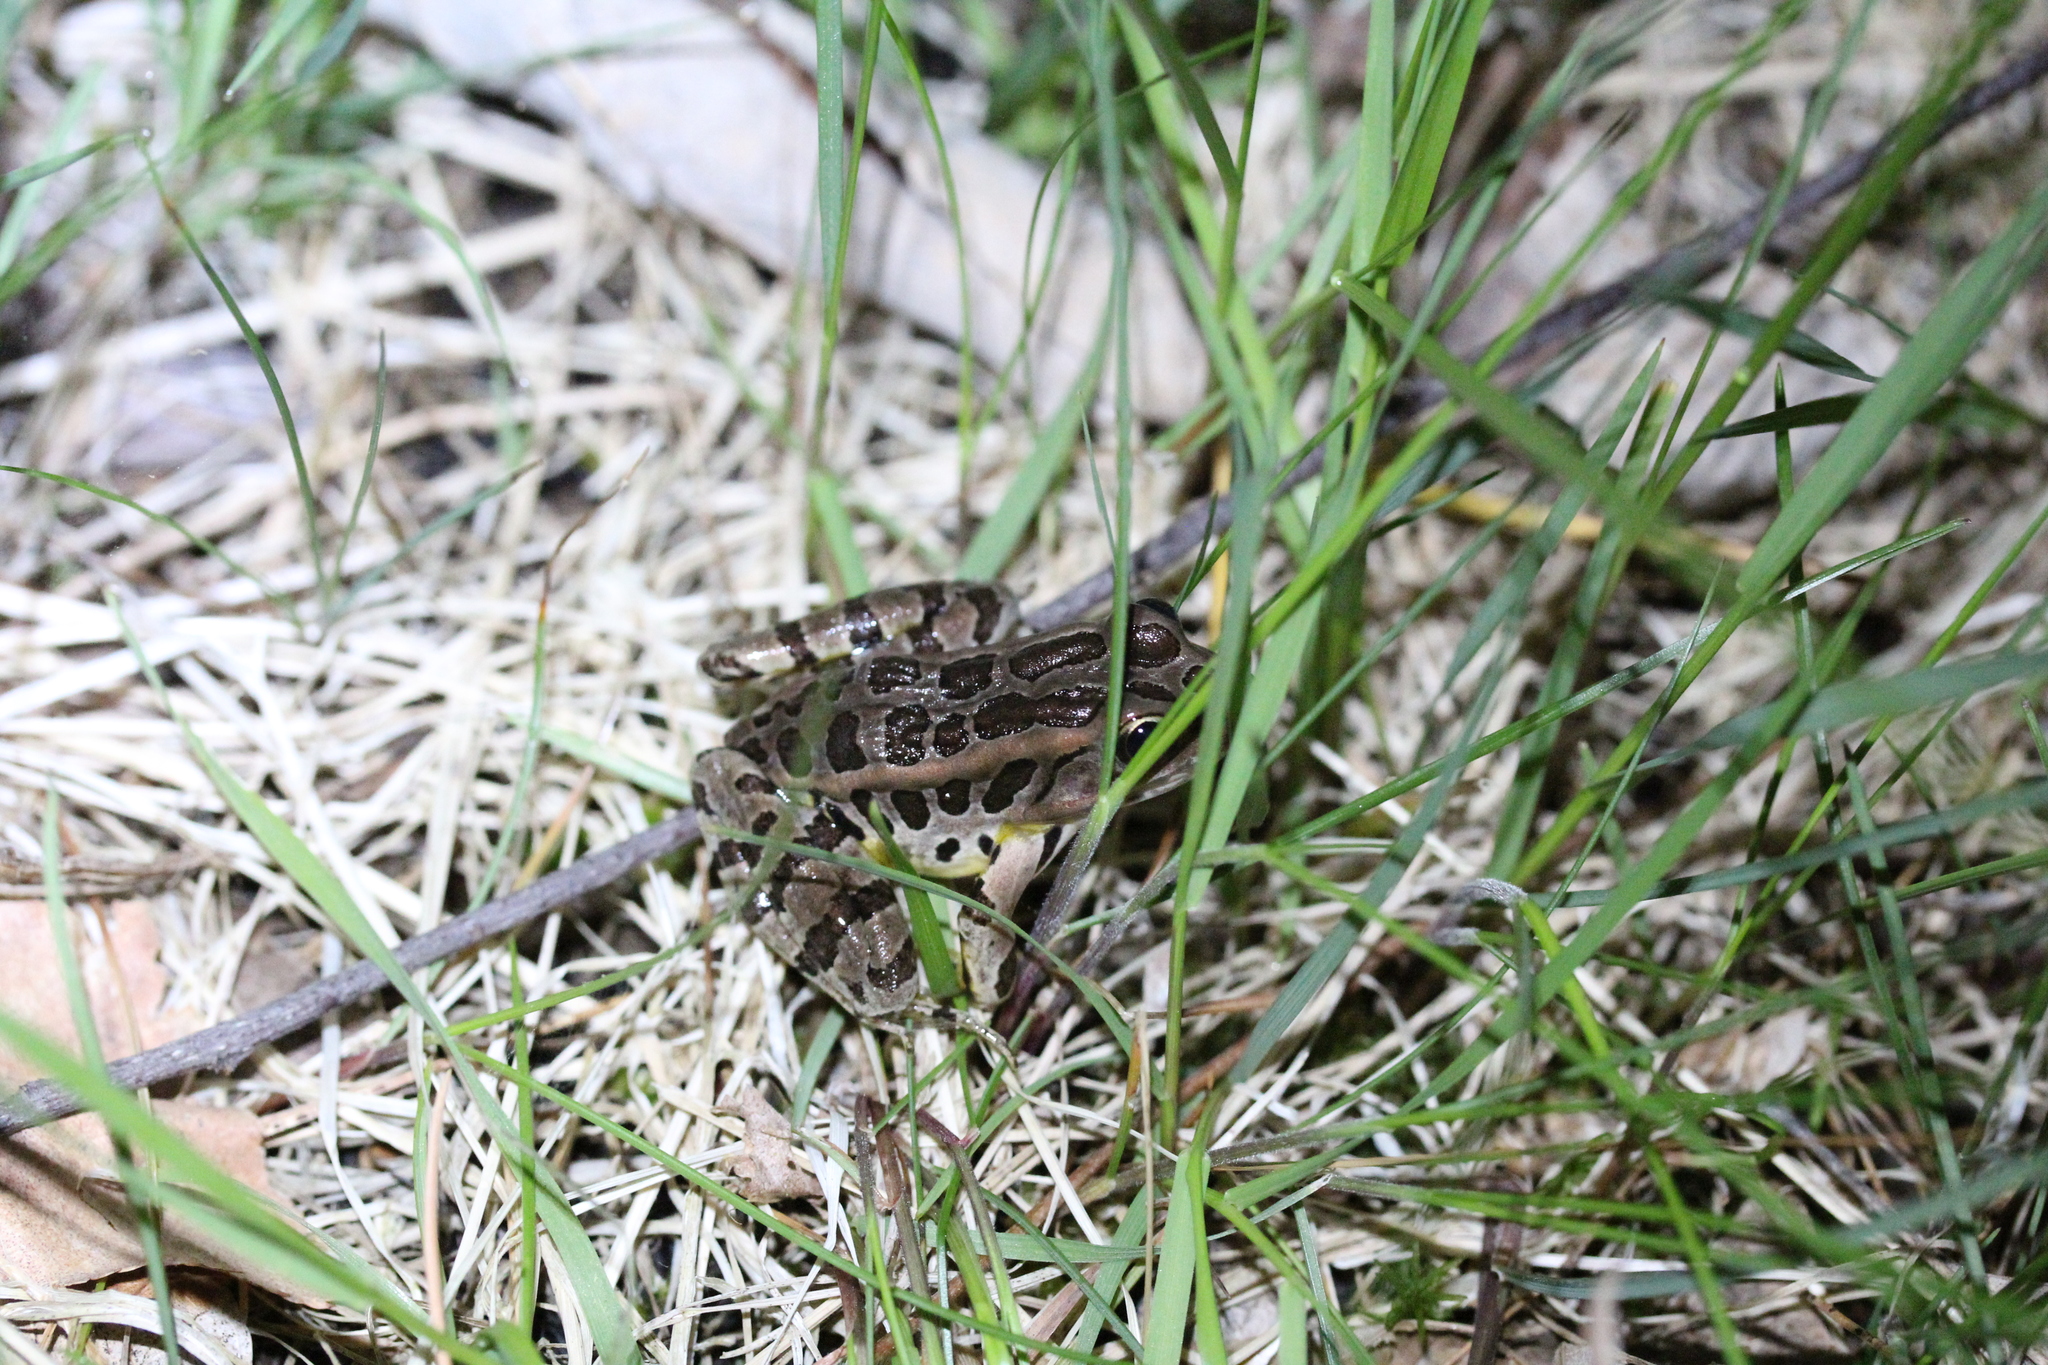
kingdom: Animalia
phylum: Chordata
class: Amphibia
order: Anura
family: Ranidae
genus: Lithobates
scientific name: Lithobates palustris
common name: Pickerel frog
